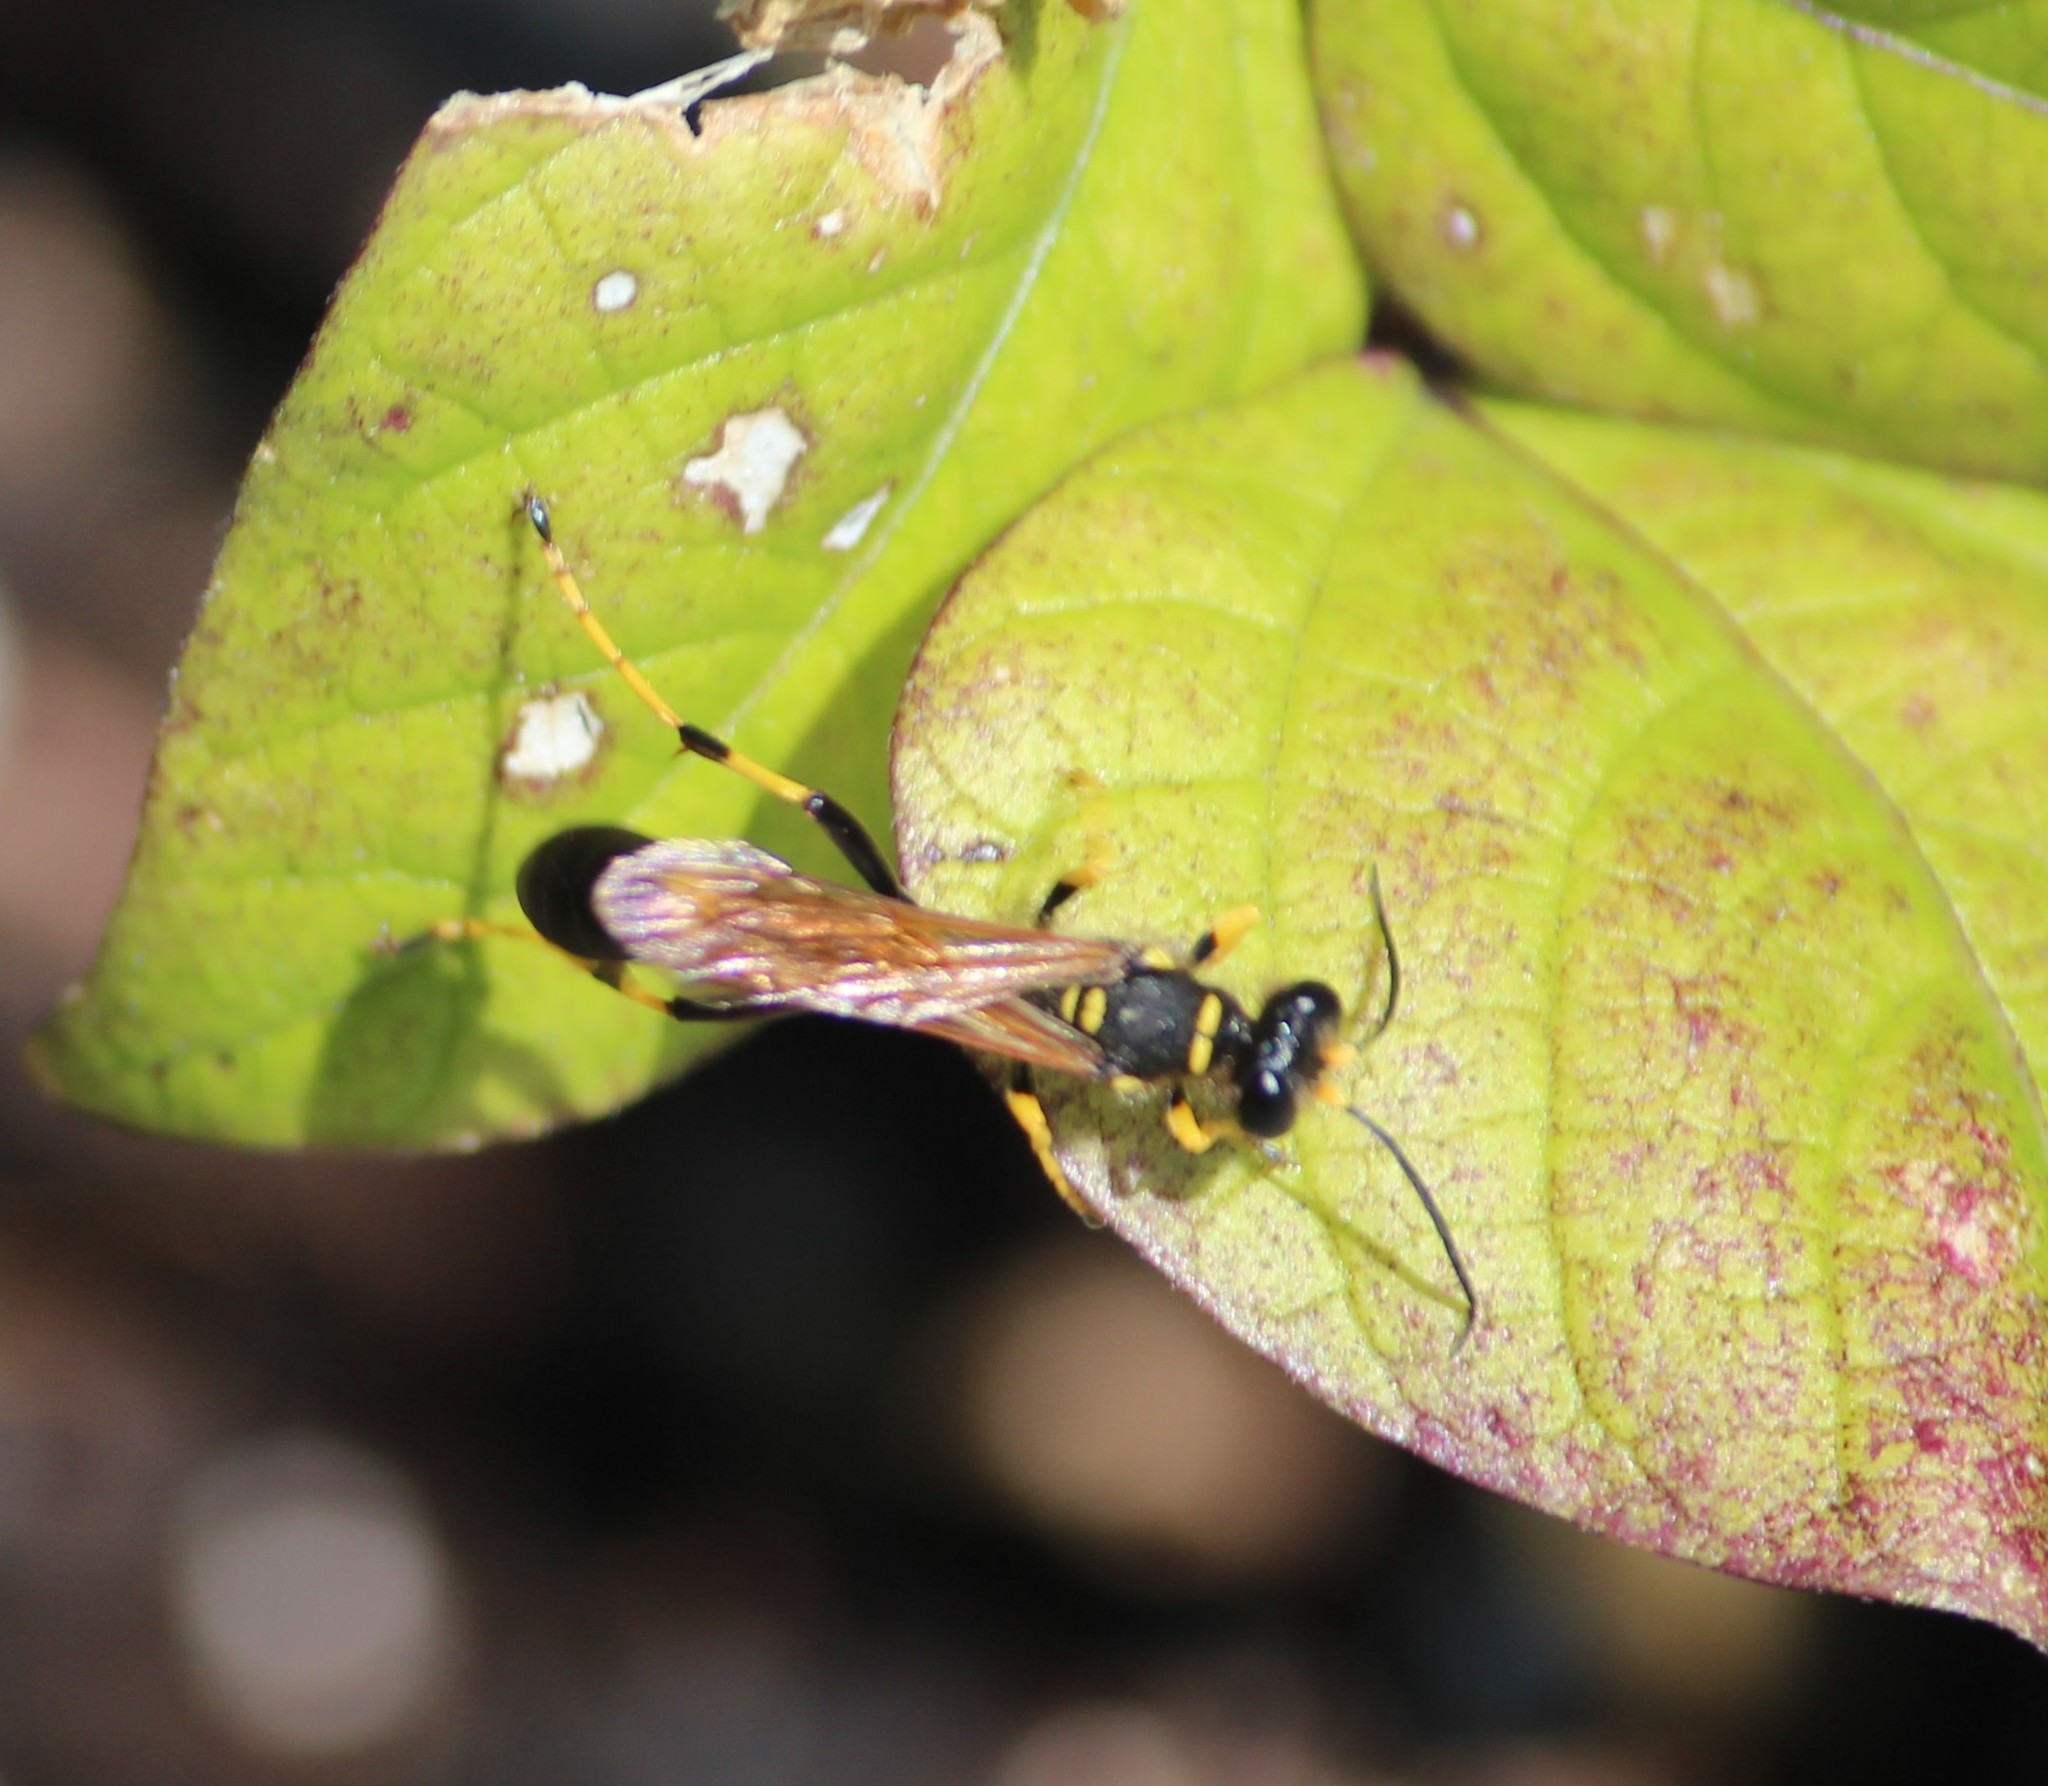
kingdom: Animalia
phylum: Arthropoda
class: Insecta
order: Hymenoptera
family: Sphecidae
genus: Sceliphron
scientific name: Sceliphron caementarium
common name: Mud dauber
